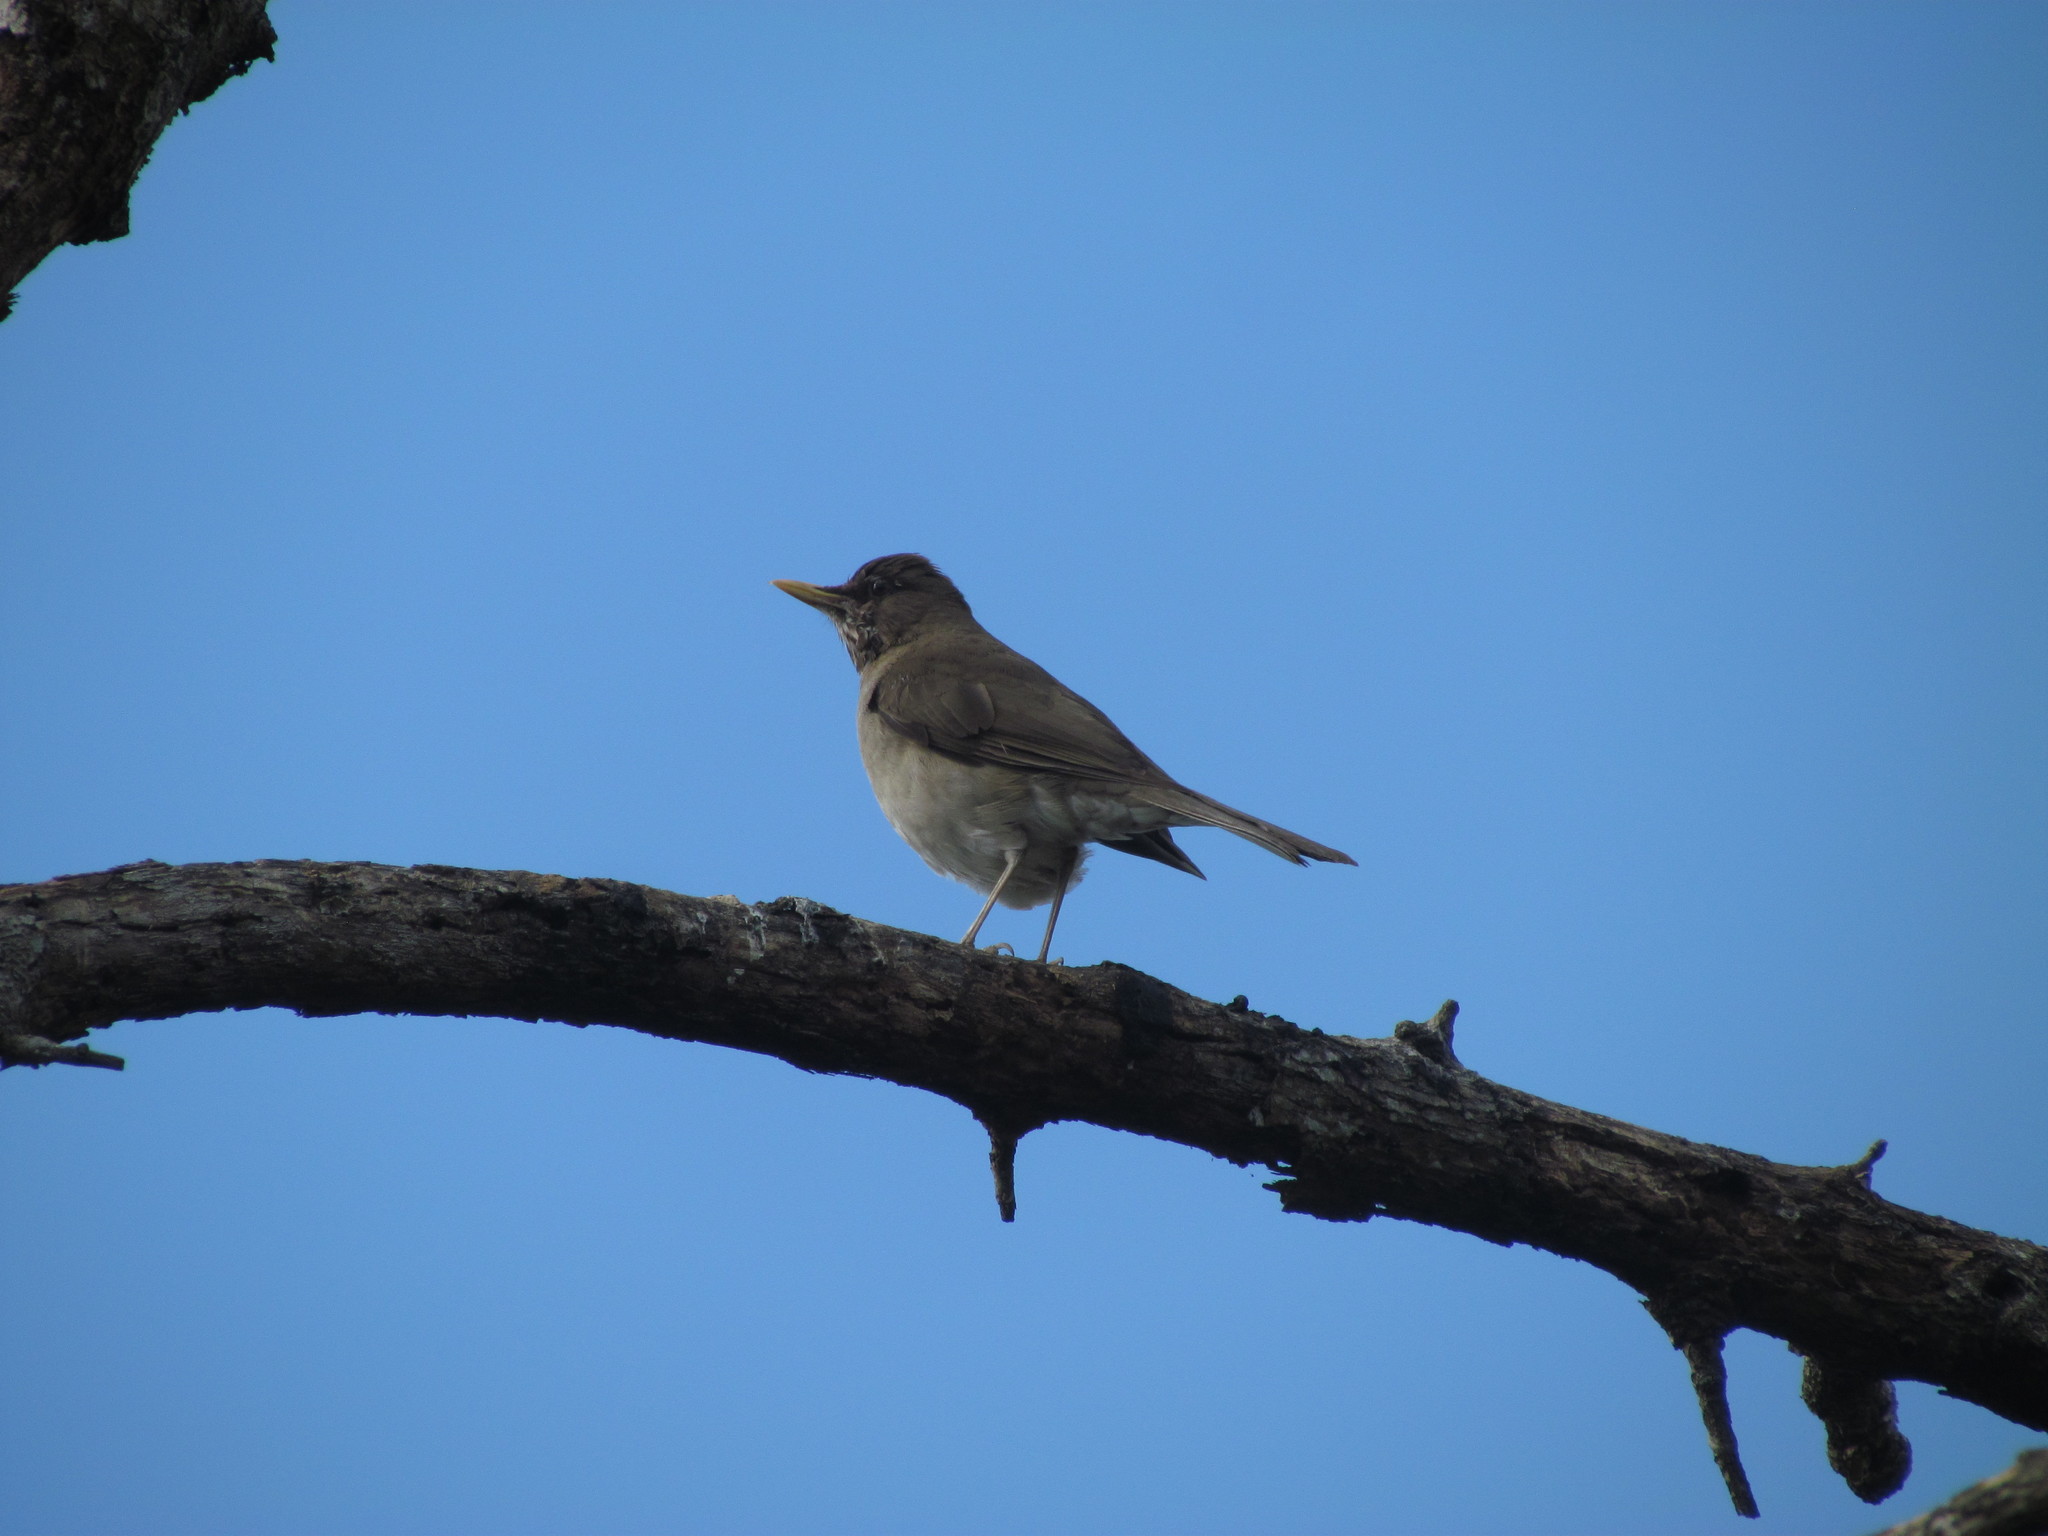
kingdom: Animalia
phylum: Chordata
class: Aves
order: Passeriformes
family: Turdidae
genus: Turdus
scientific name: Turdus amaurochalinus
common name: Creamy-bellied thrush
